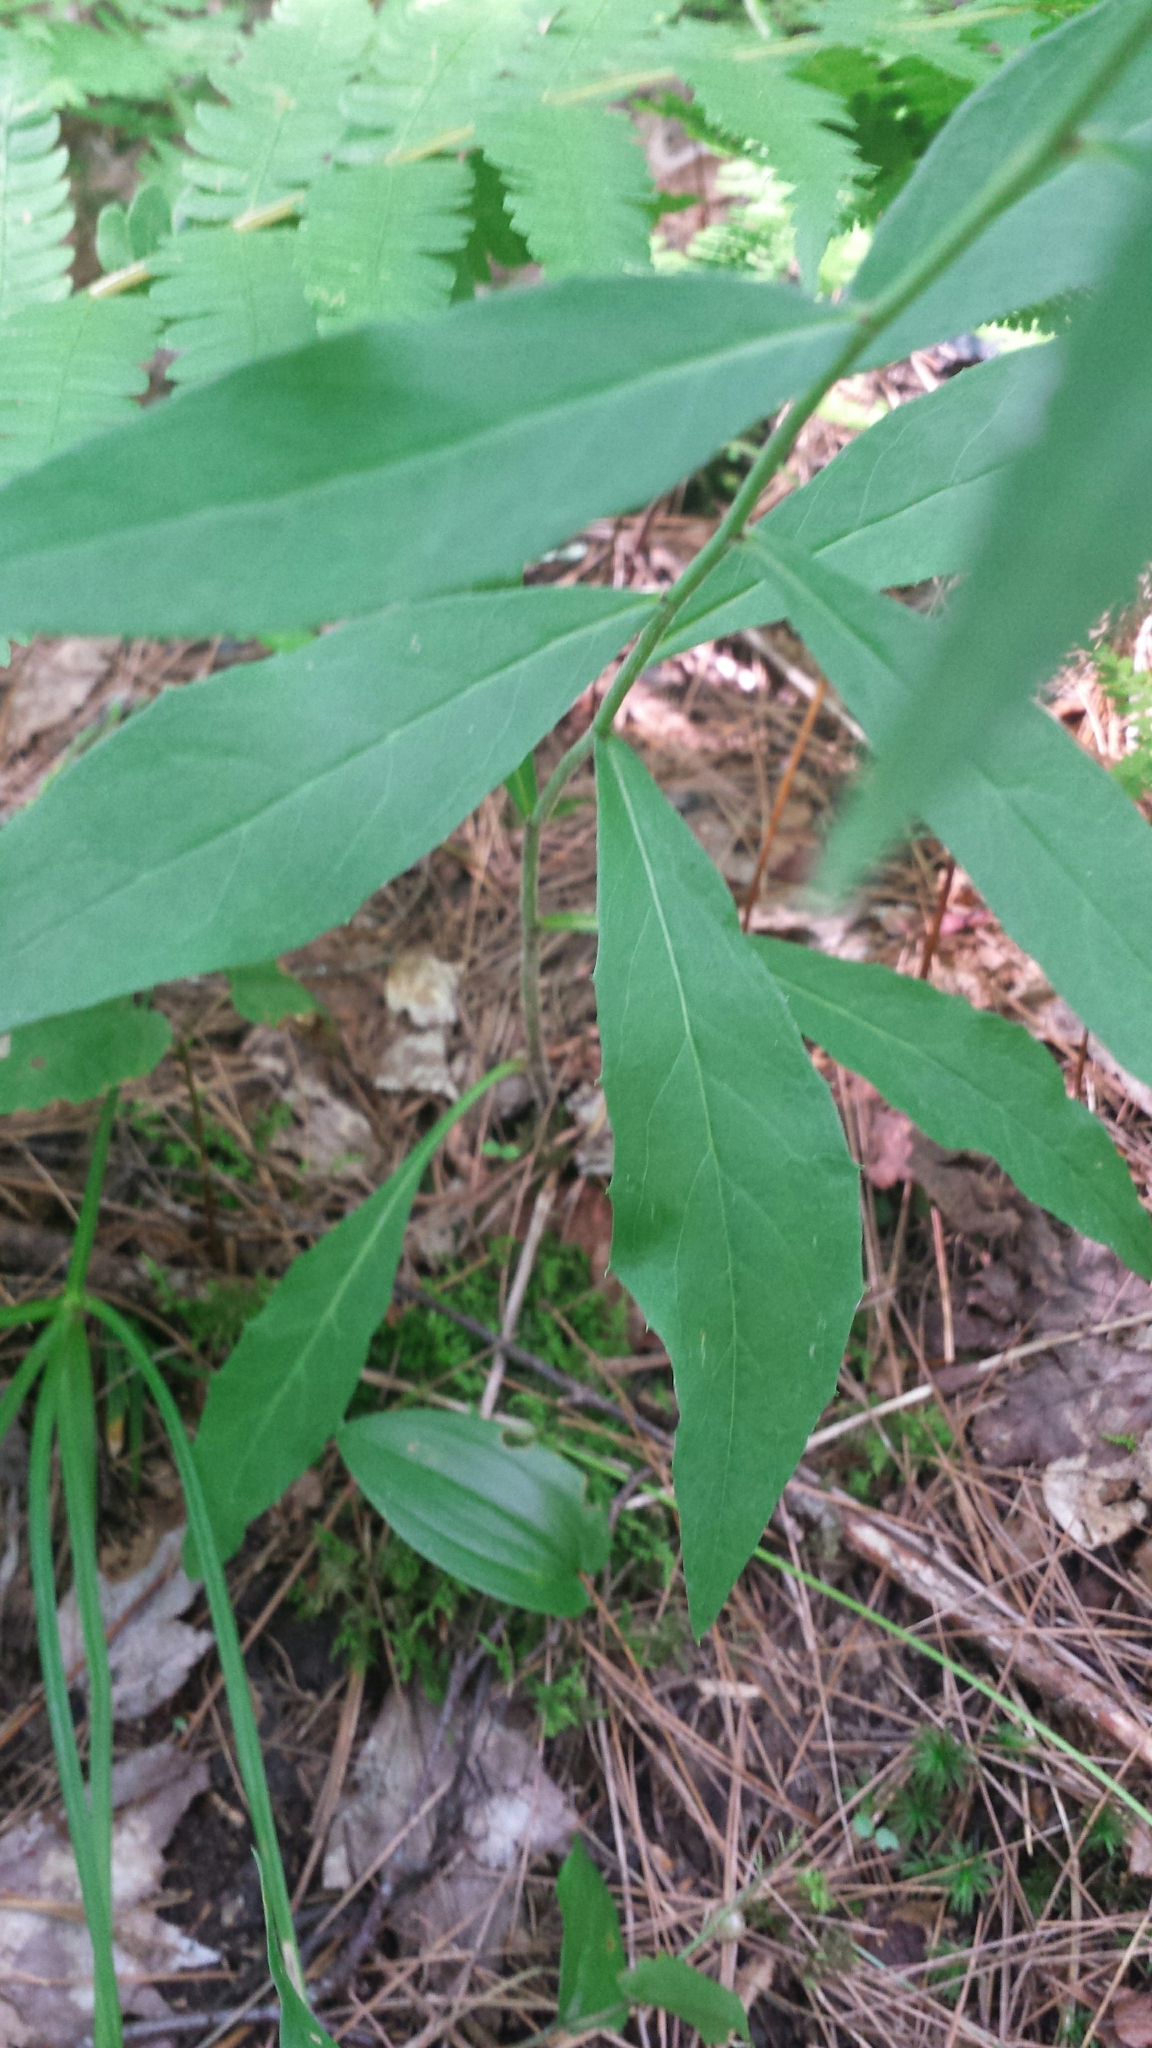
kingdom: Plantae
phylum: Tracheophyta
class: Magnoliopsida
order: Asterales
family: Asteraceae
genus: Hieracium
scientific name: Hieracium paniculatum
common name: Allegheny hawkweed
